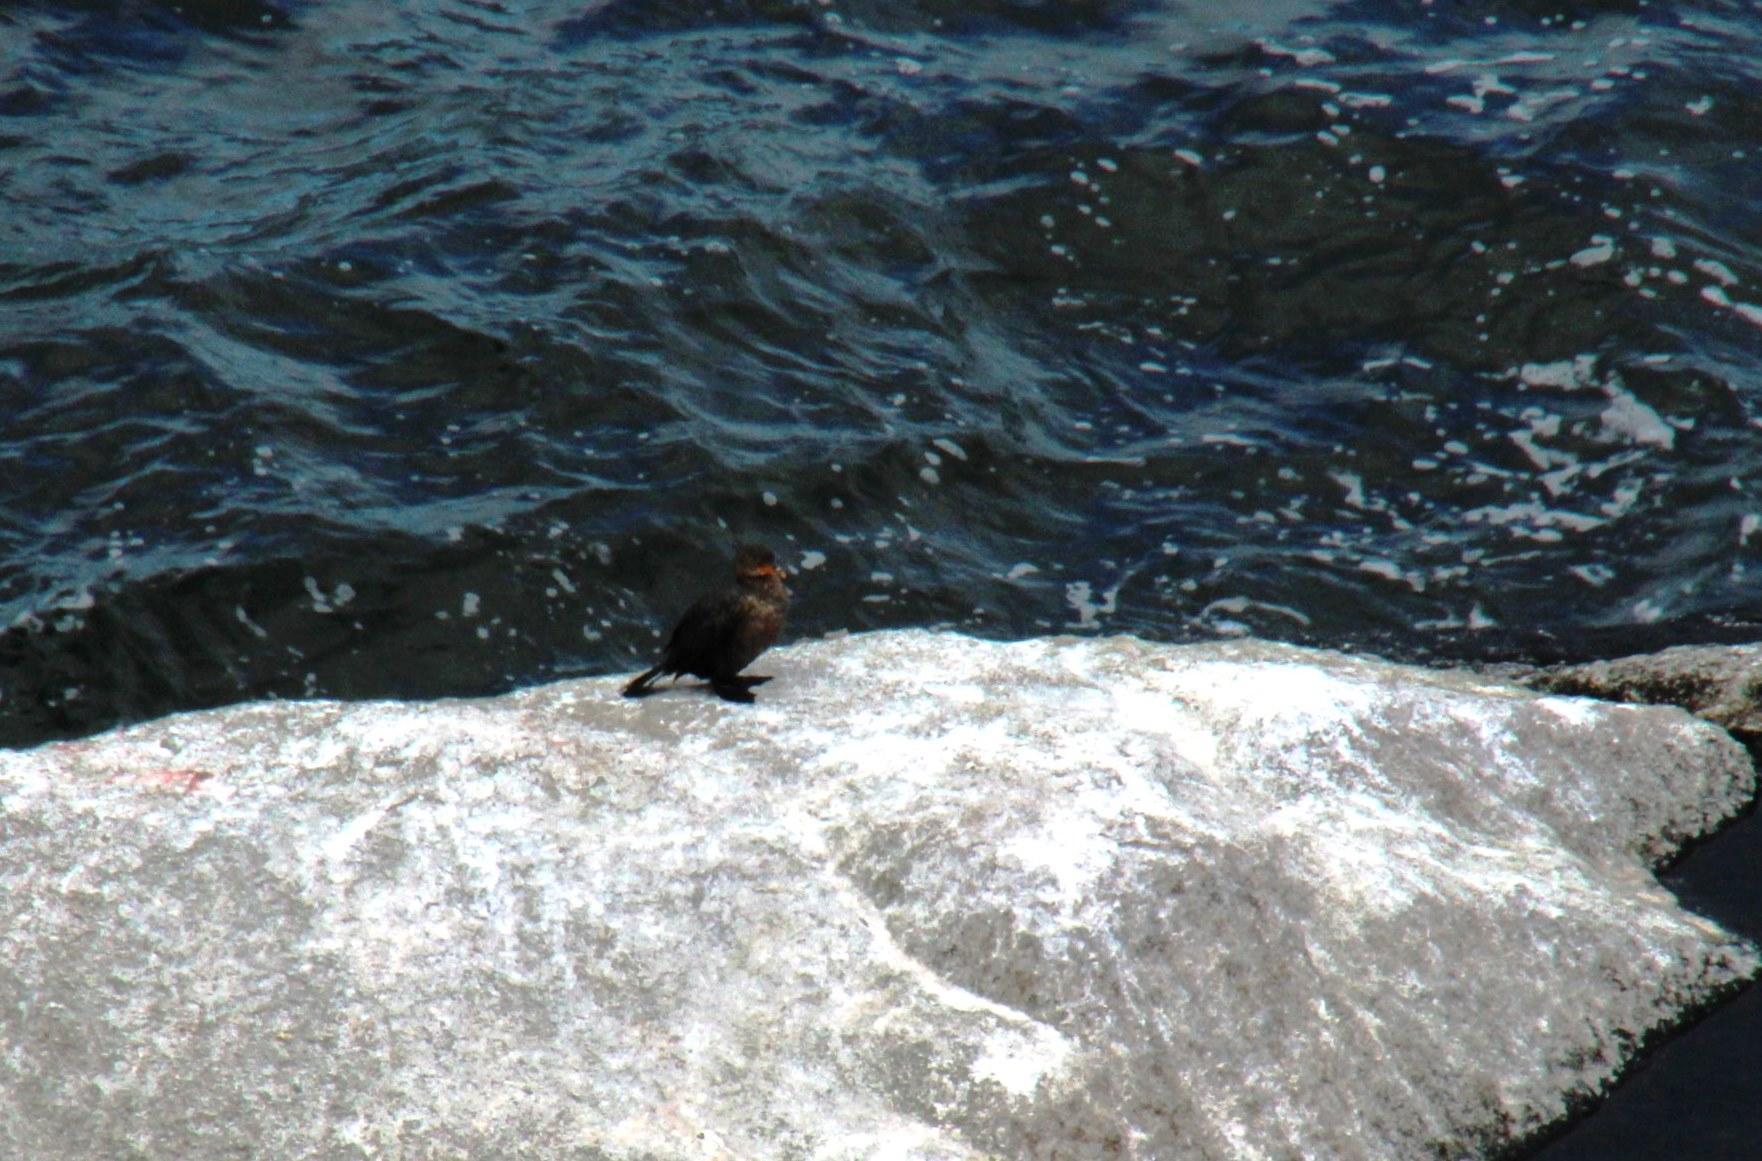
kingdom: Animalia
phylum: Chordata
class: Aves
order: Suliformes
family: Phalacrocoracidae
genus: Microcarbo
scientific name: Microcarbo coronatus
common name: Crowned cormorant
